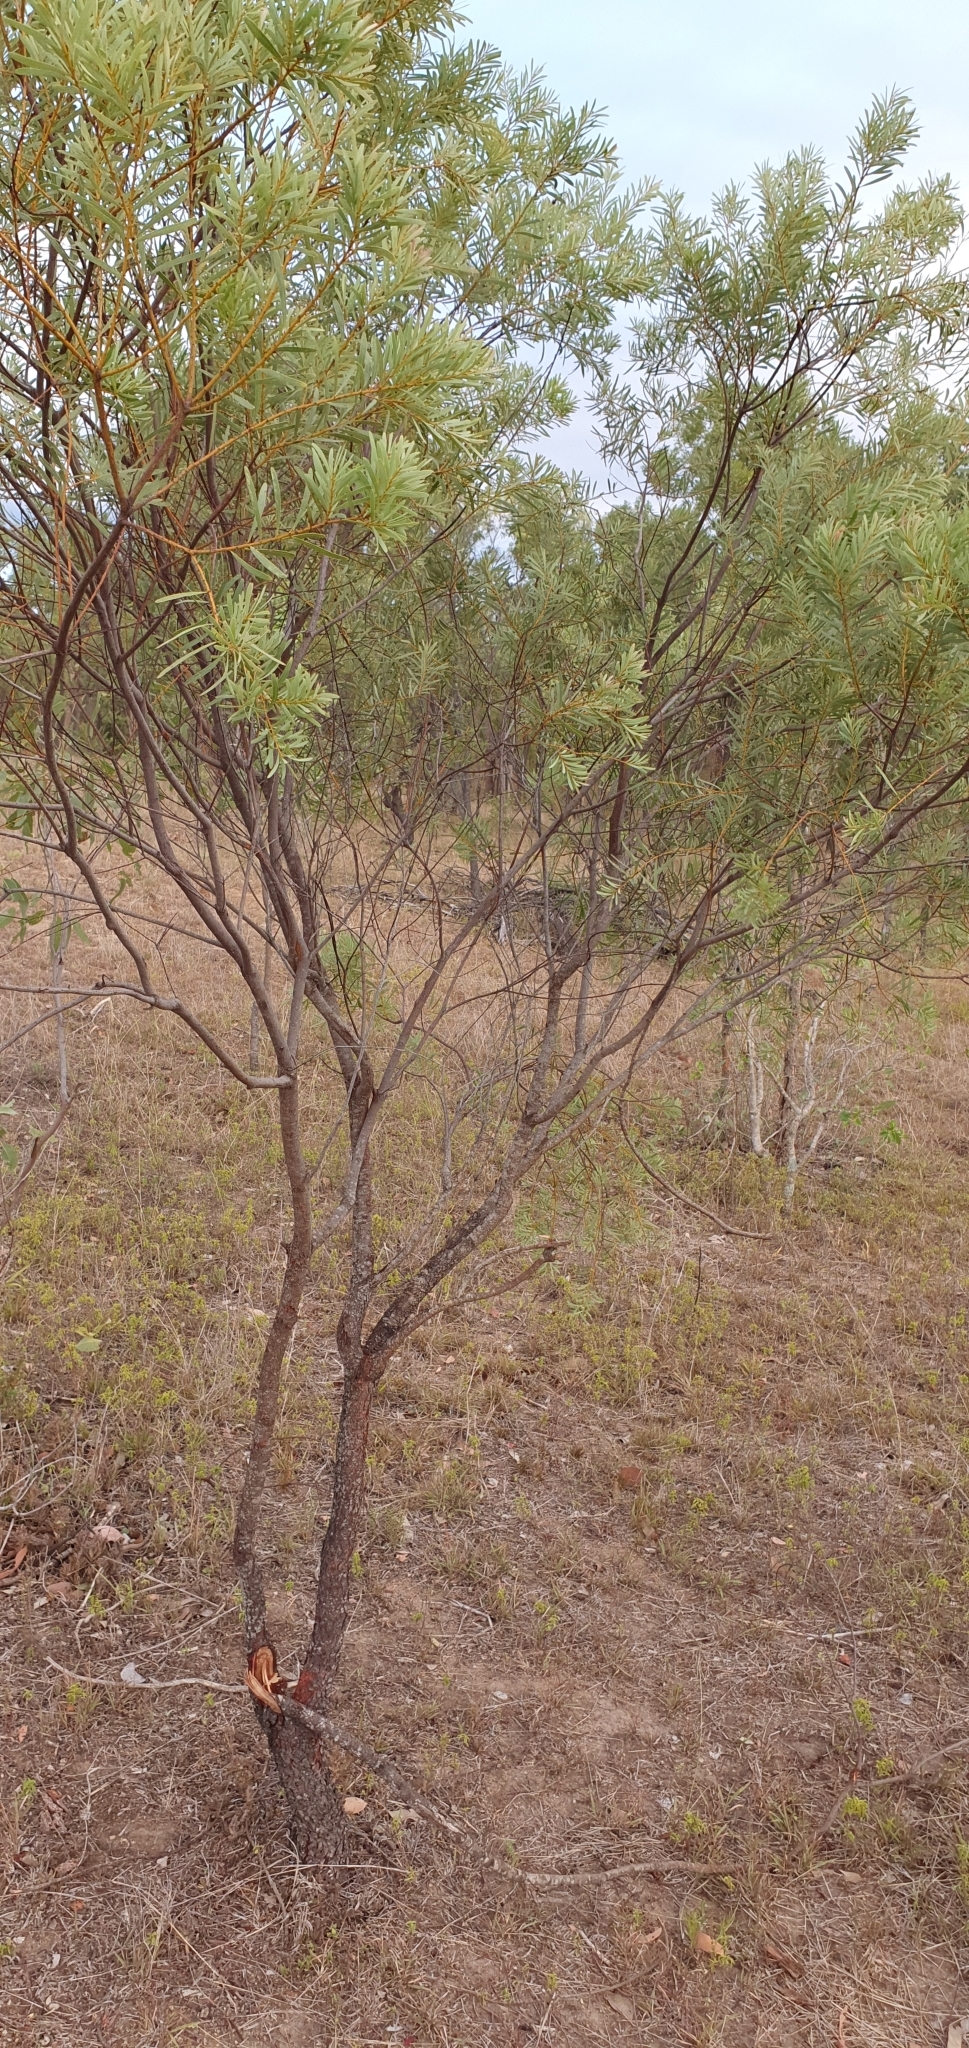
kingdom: Plantae
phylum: Tracheophyta
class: Magnoliopsida
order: Fabales
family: Fabaceae
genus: Acacia
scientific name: Acacia decora
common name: Showy wattle
